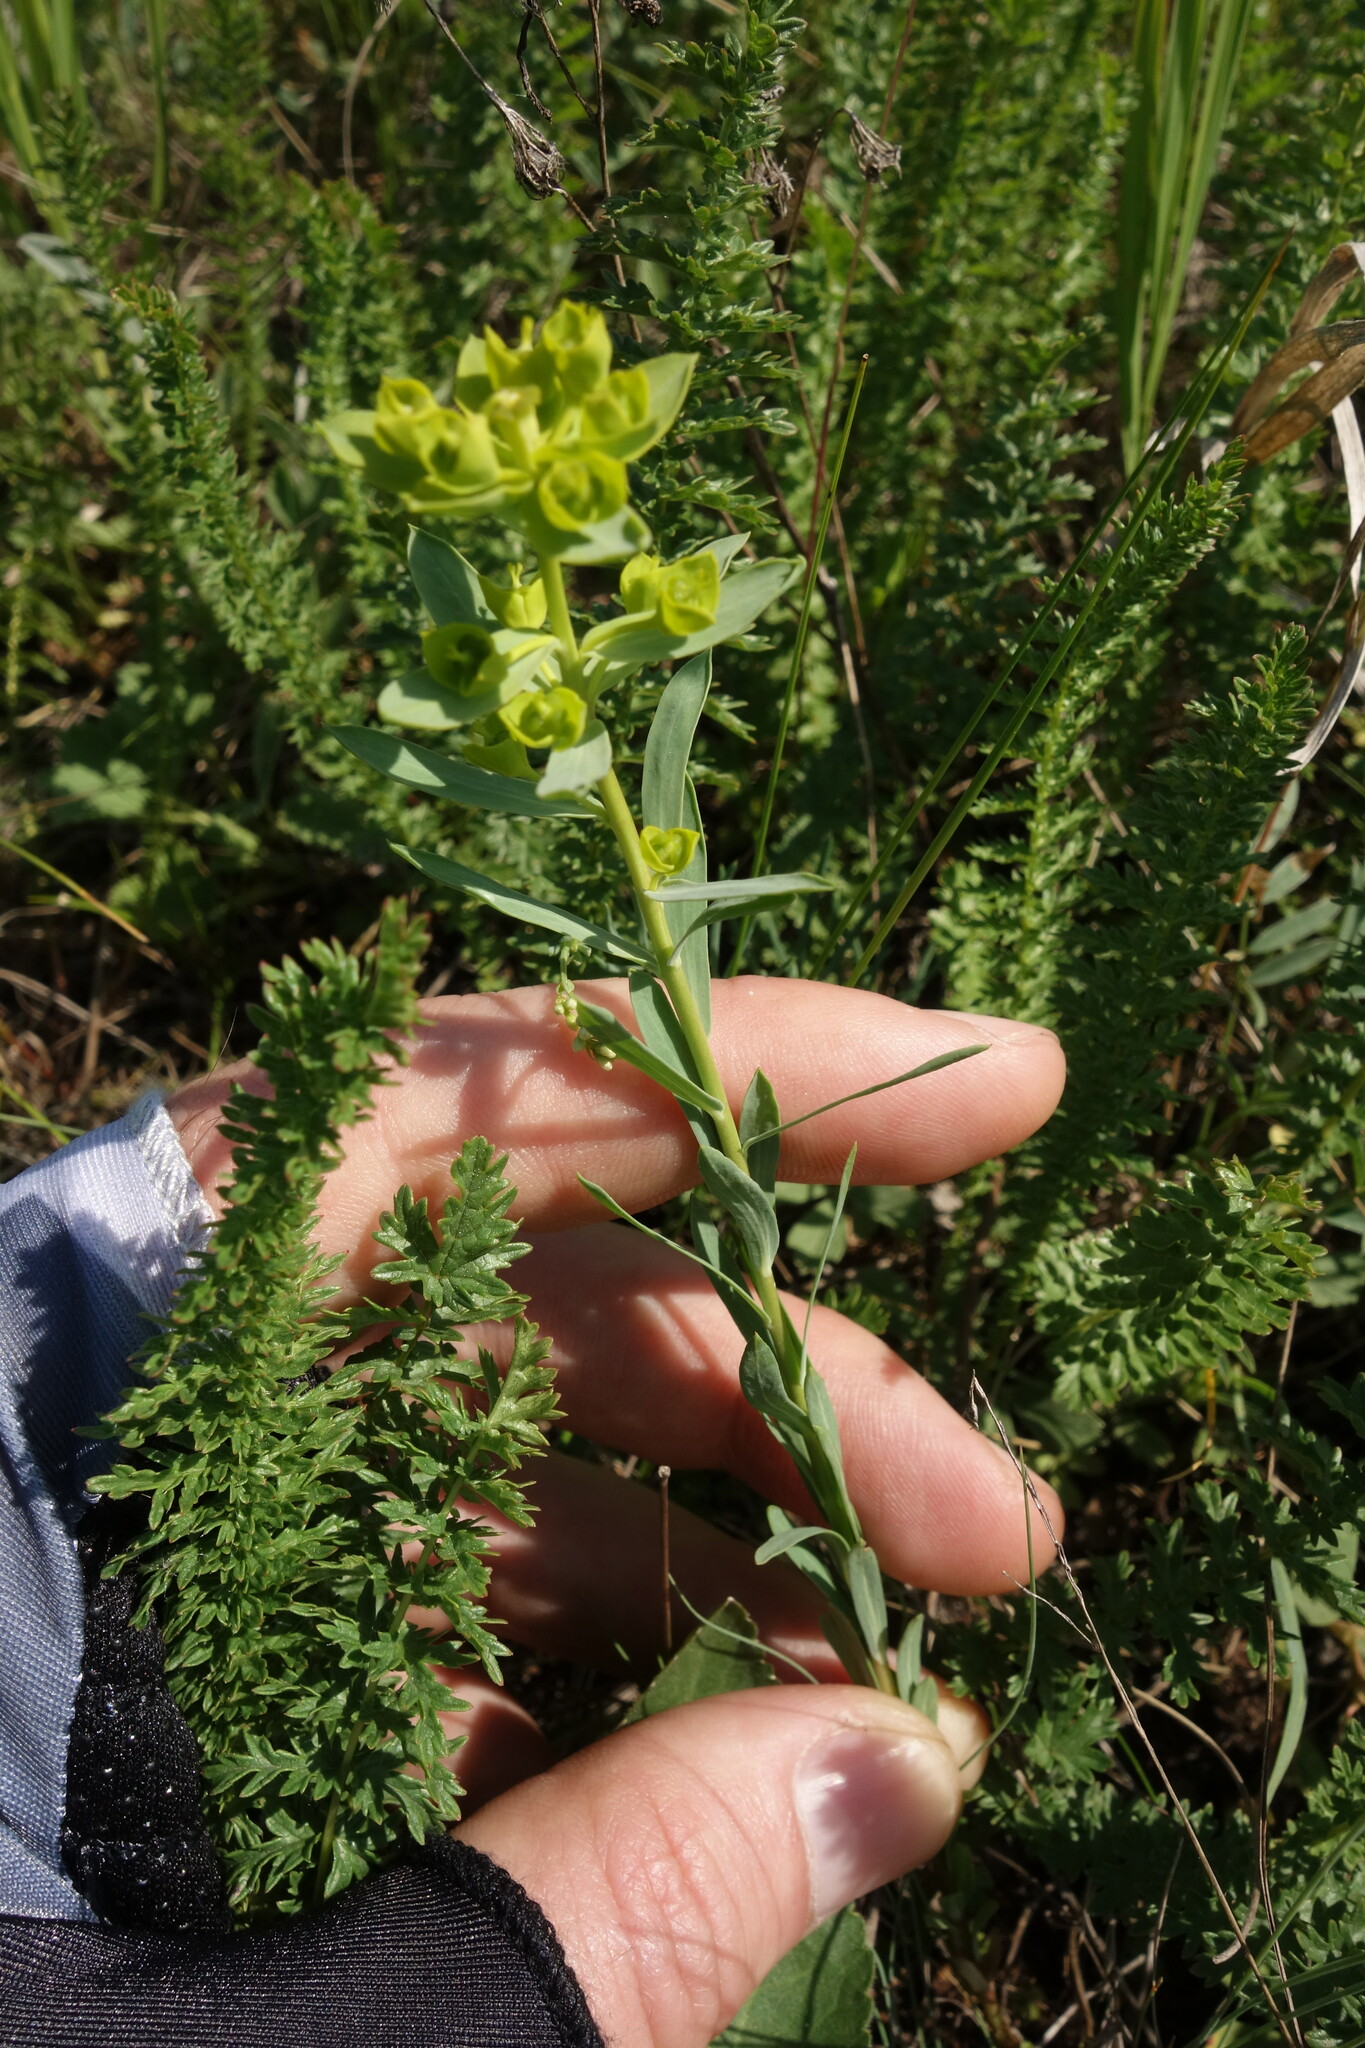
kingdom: Plantae
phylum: Tracheophyta
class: Magnoliopsida
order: Malpighiales
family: Euphorbiaceae
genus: Euphorbia
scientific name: Euphorbia seguieriana
